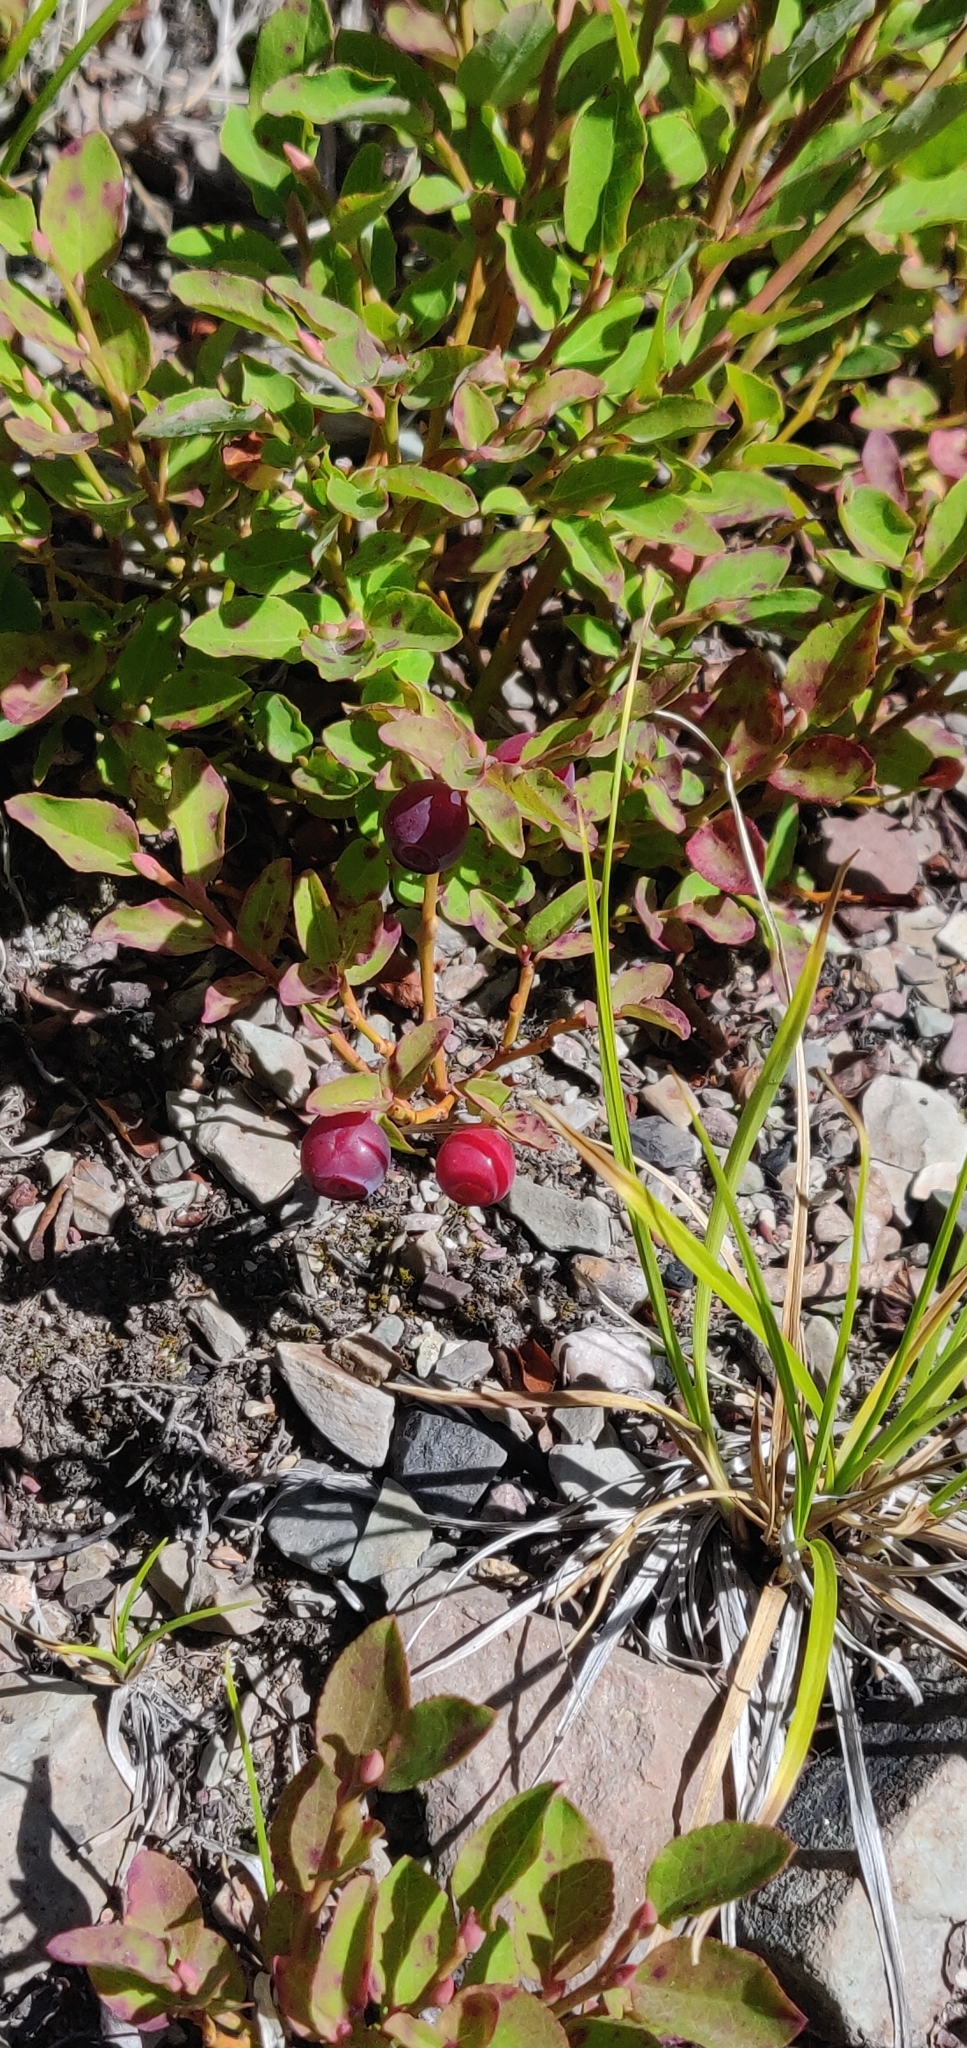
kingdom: Plantae
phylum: Tracheophyta
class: Magnoliopsida
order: Ericales
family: Ericaceae
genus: Vaccinium
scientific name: Vaccinium scoparium
